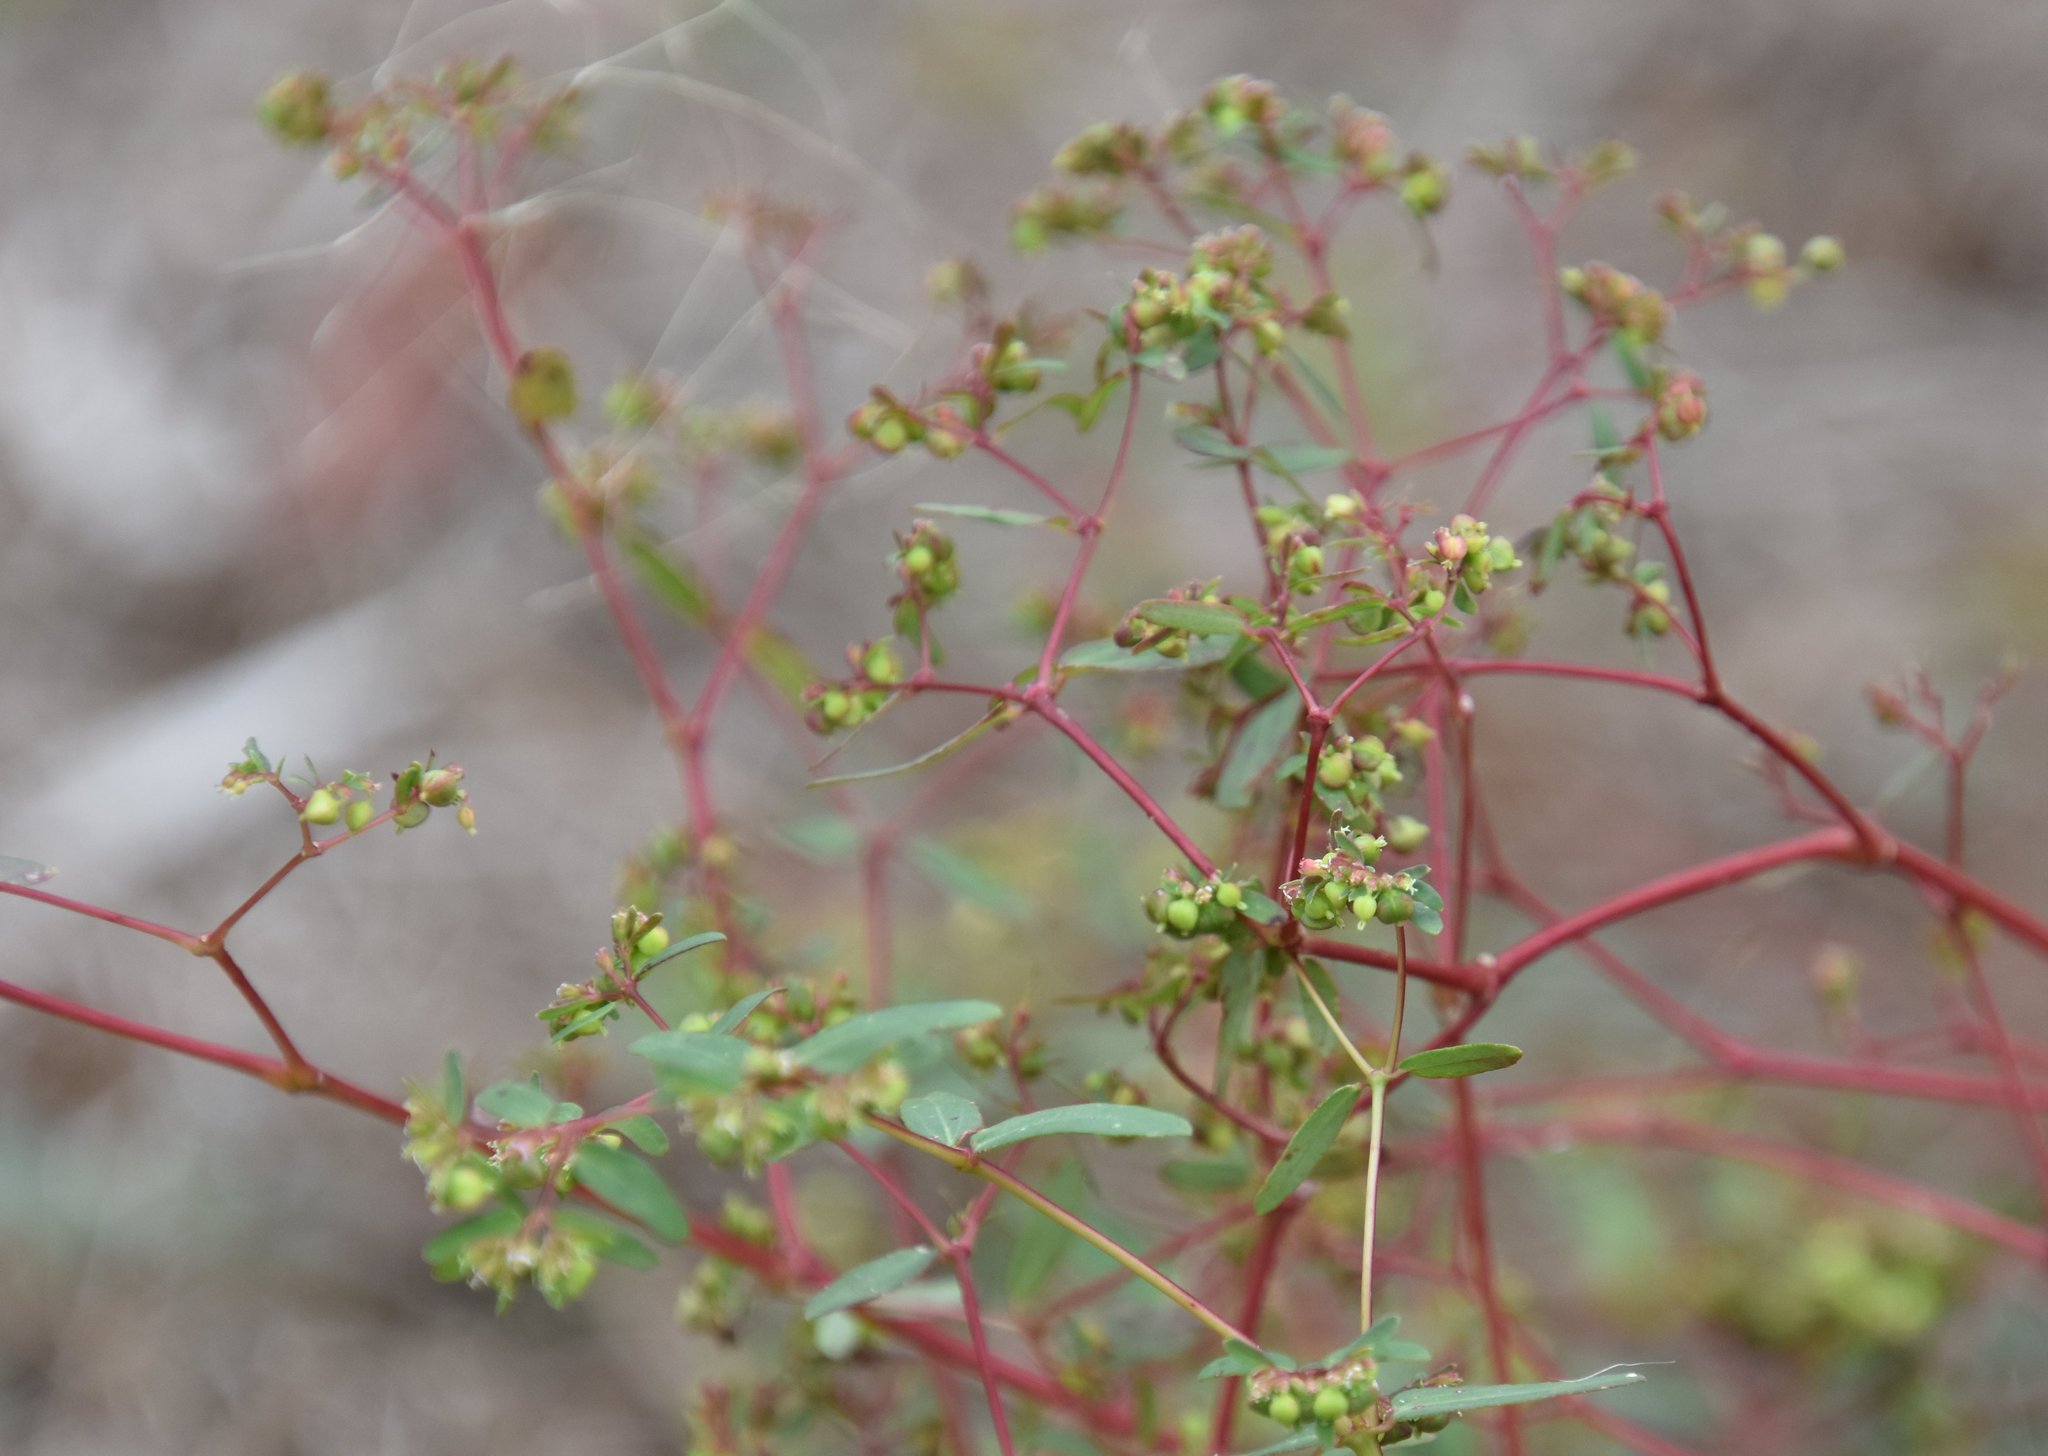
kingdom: Plantae
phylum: Tracheophyta
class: Magnoliopsida
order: Malpighiales
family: Euphorbiaceae
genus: Euphorbia
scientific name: Euphorbia hyssopifolia
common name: Hyssopleaf sandmat
